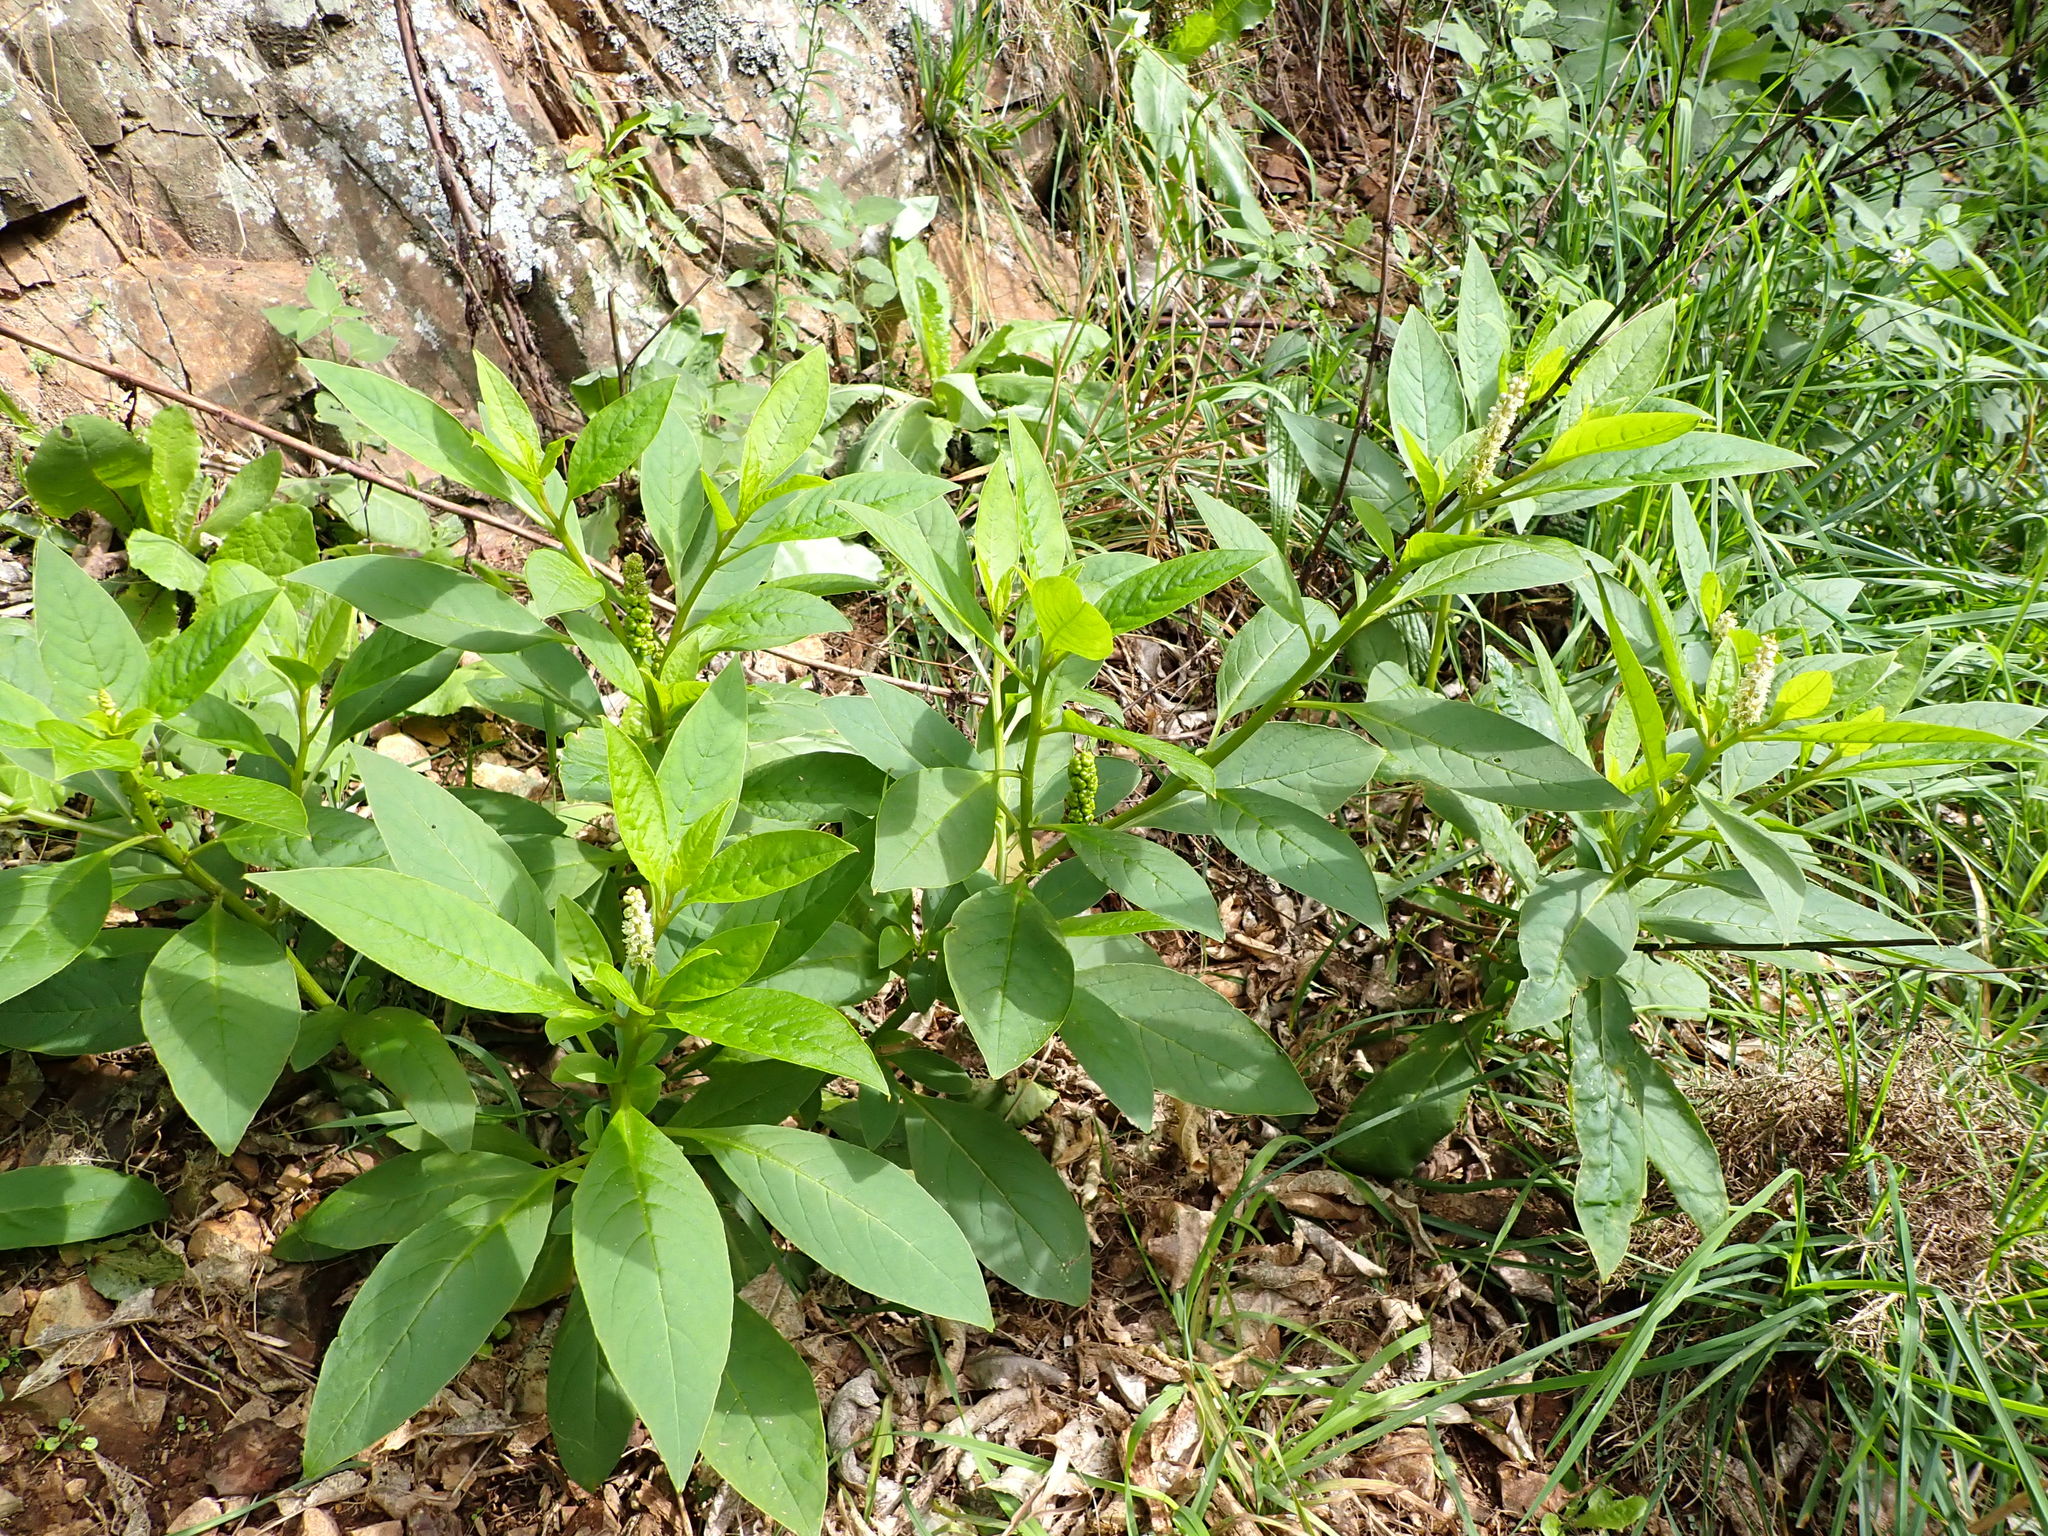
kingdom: Plantae
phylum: Tracheophyta
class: Magnoliopsida
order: Caryophyllales
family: Phytolaccaceae
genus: Phytolacca
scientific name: Phytolacca icosandra
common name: Button pokeweed
